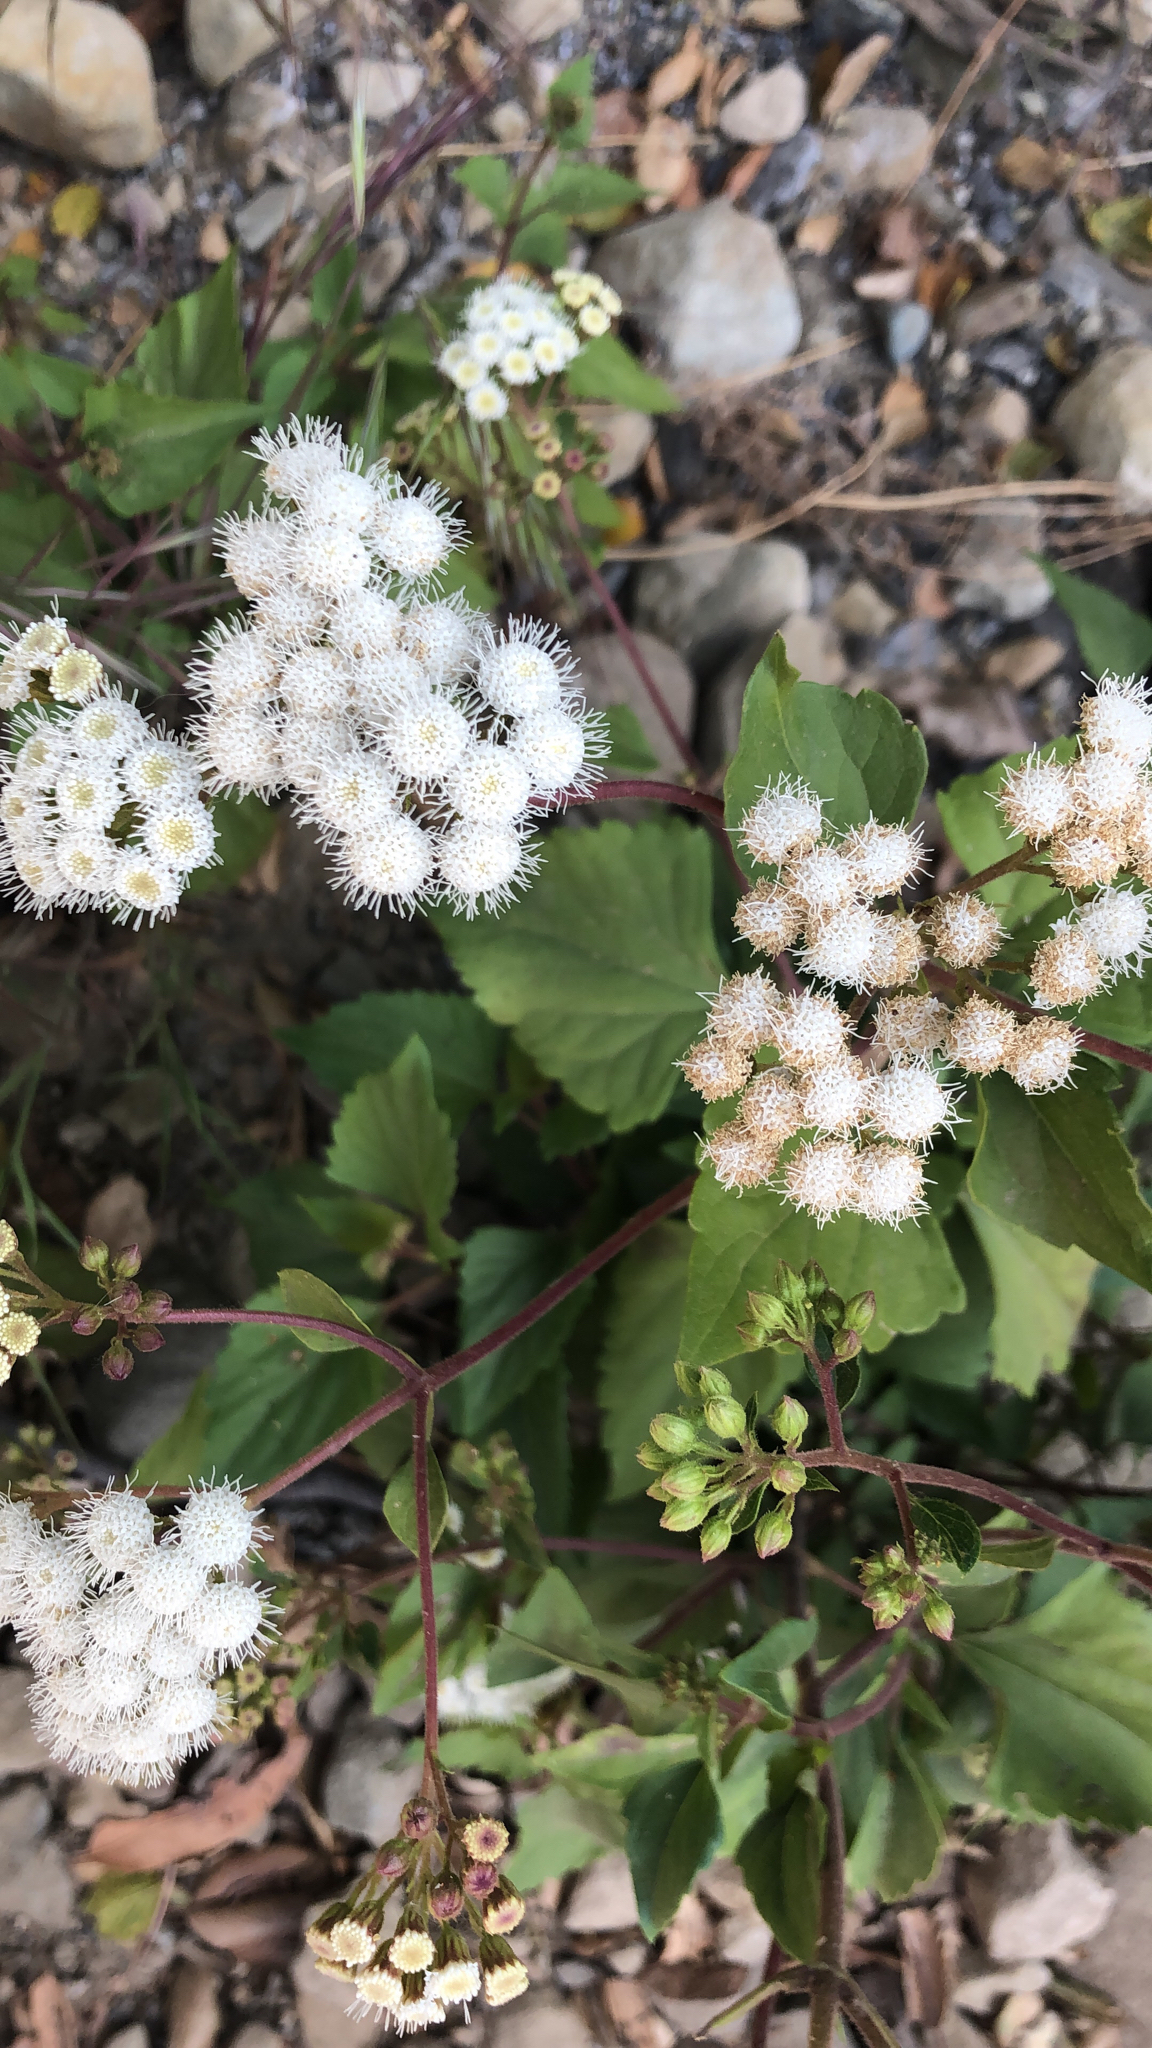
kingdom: Plantae
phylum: Tracheophyta
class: Magnoliopsida
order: Asterales
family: Asteraceae
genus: Ageratina
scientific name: Ageratina adenophora
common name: Sticky snakeroot
